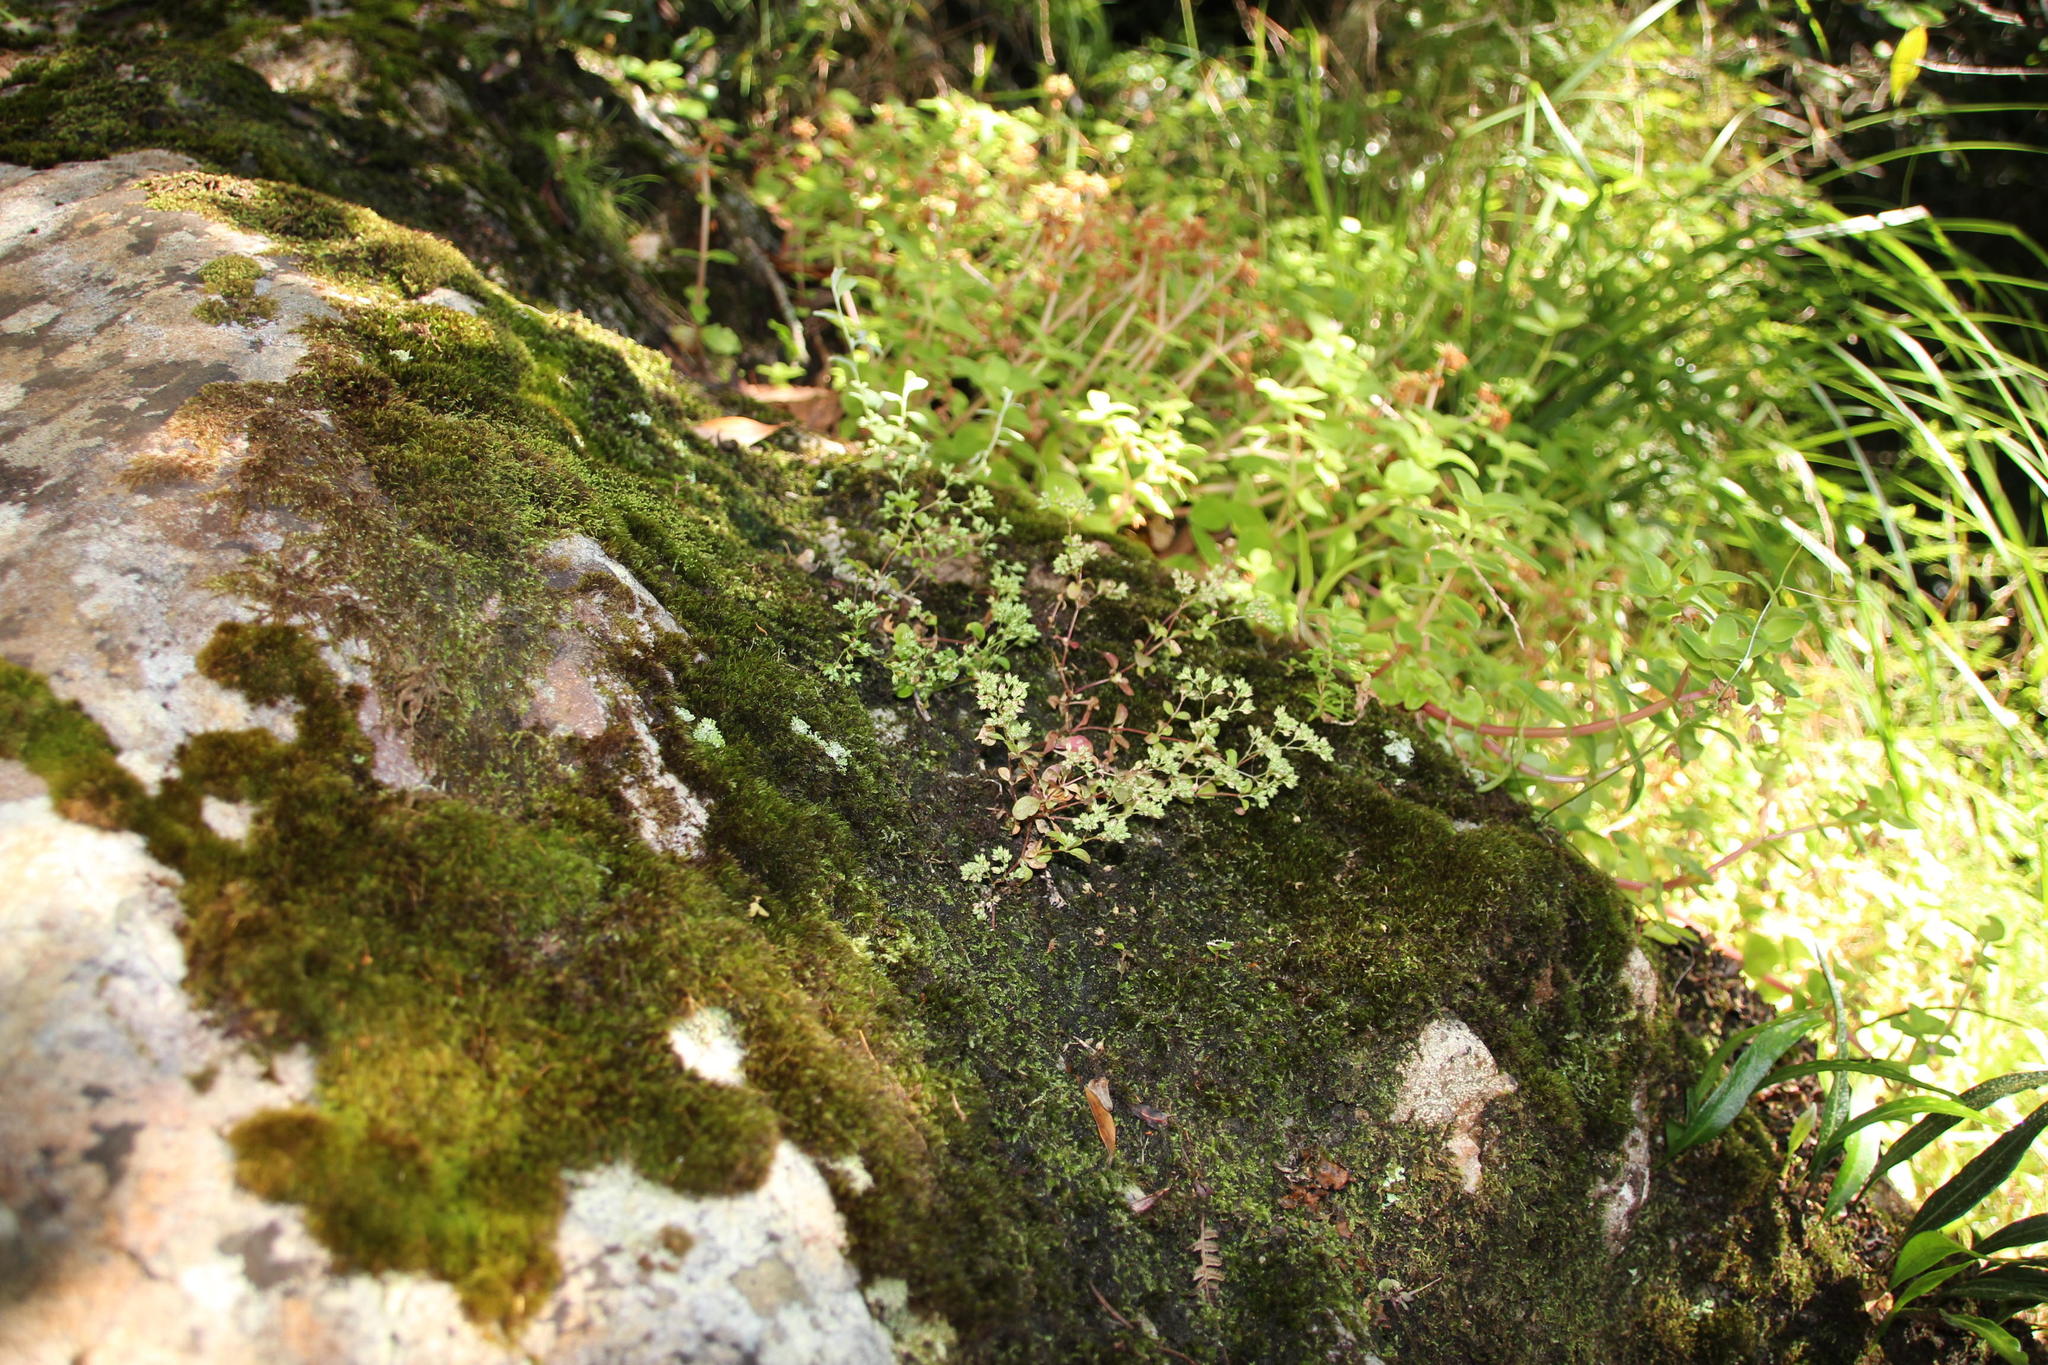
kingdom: Plantae
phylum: Tracheophyta
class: Magnoliopsida
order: Caryophyllales
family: Caryophyllaceae
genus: Polycarpon
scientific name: Polycarpon tetraphyllum
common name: Four-leaved all-seed
